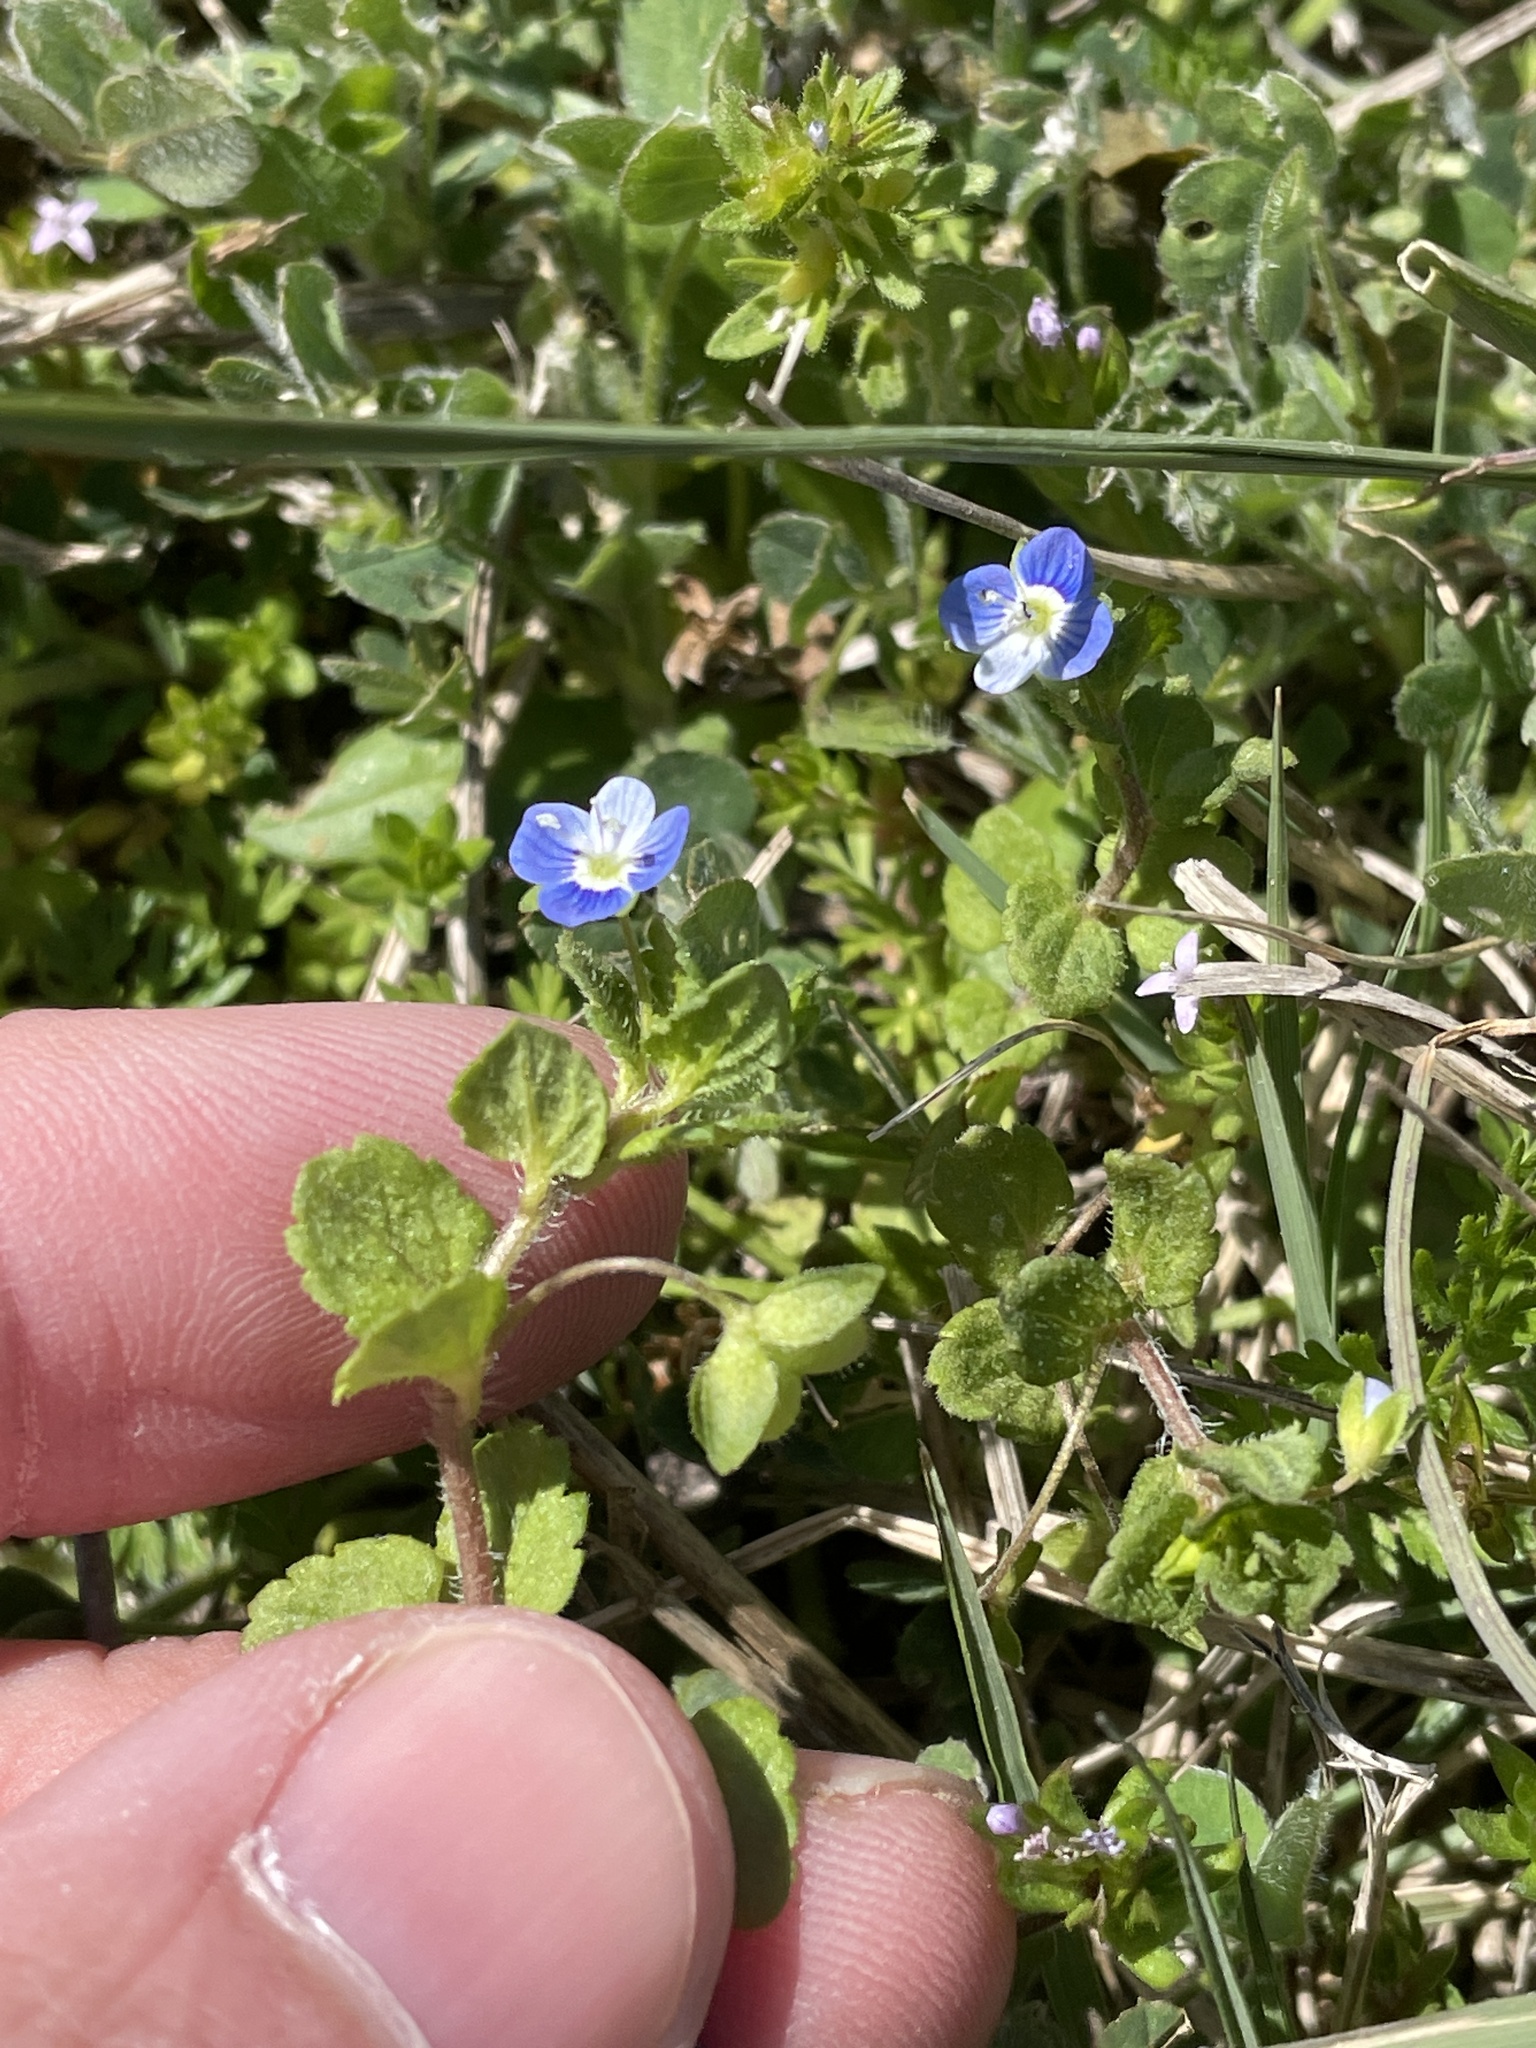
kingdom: Plantae
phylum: Tracheophyta
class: Magnoliopsida
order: Lamiales
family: Plantaginaceae
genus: Veronica
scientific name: Veronica persica
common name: Common field-speedwell
